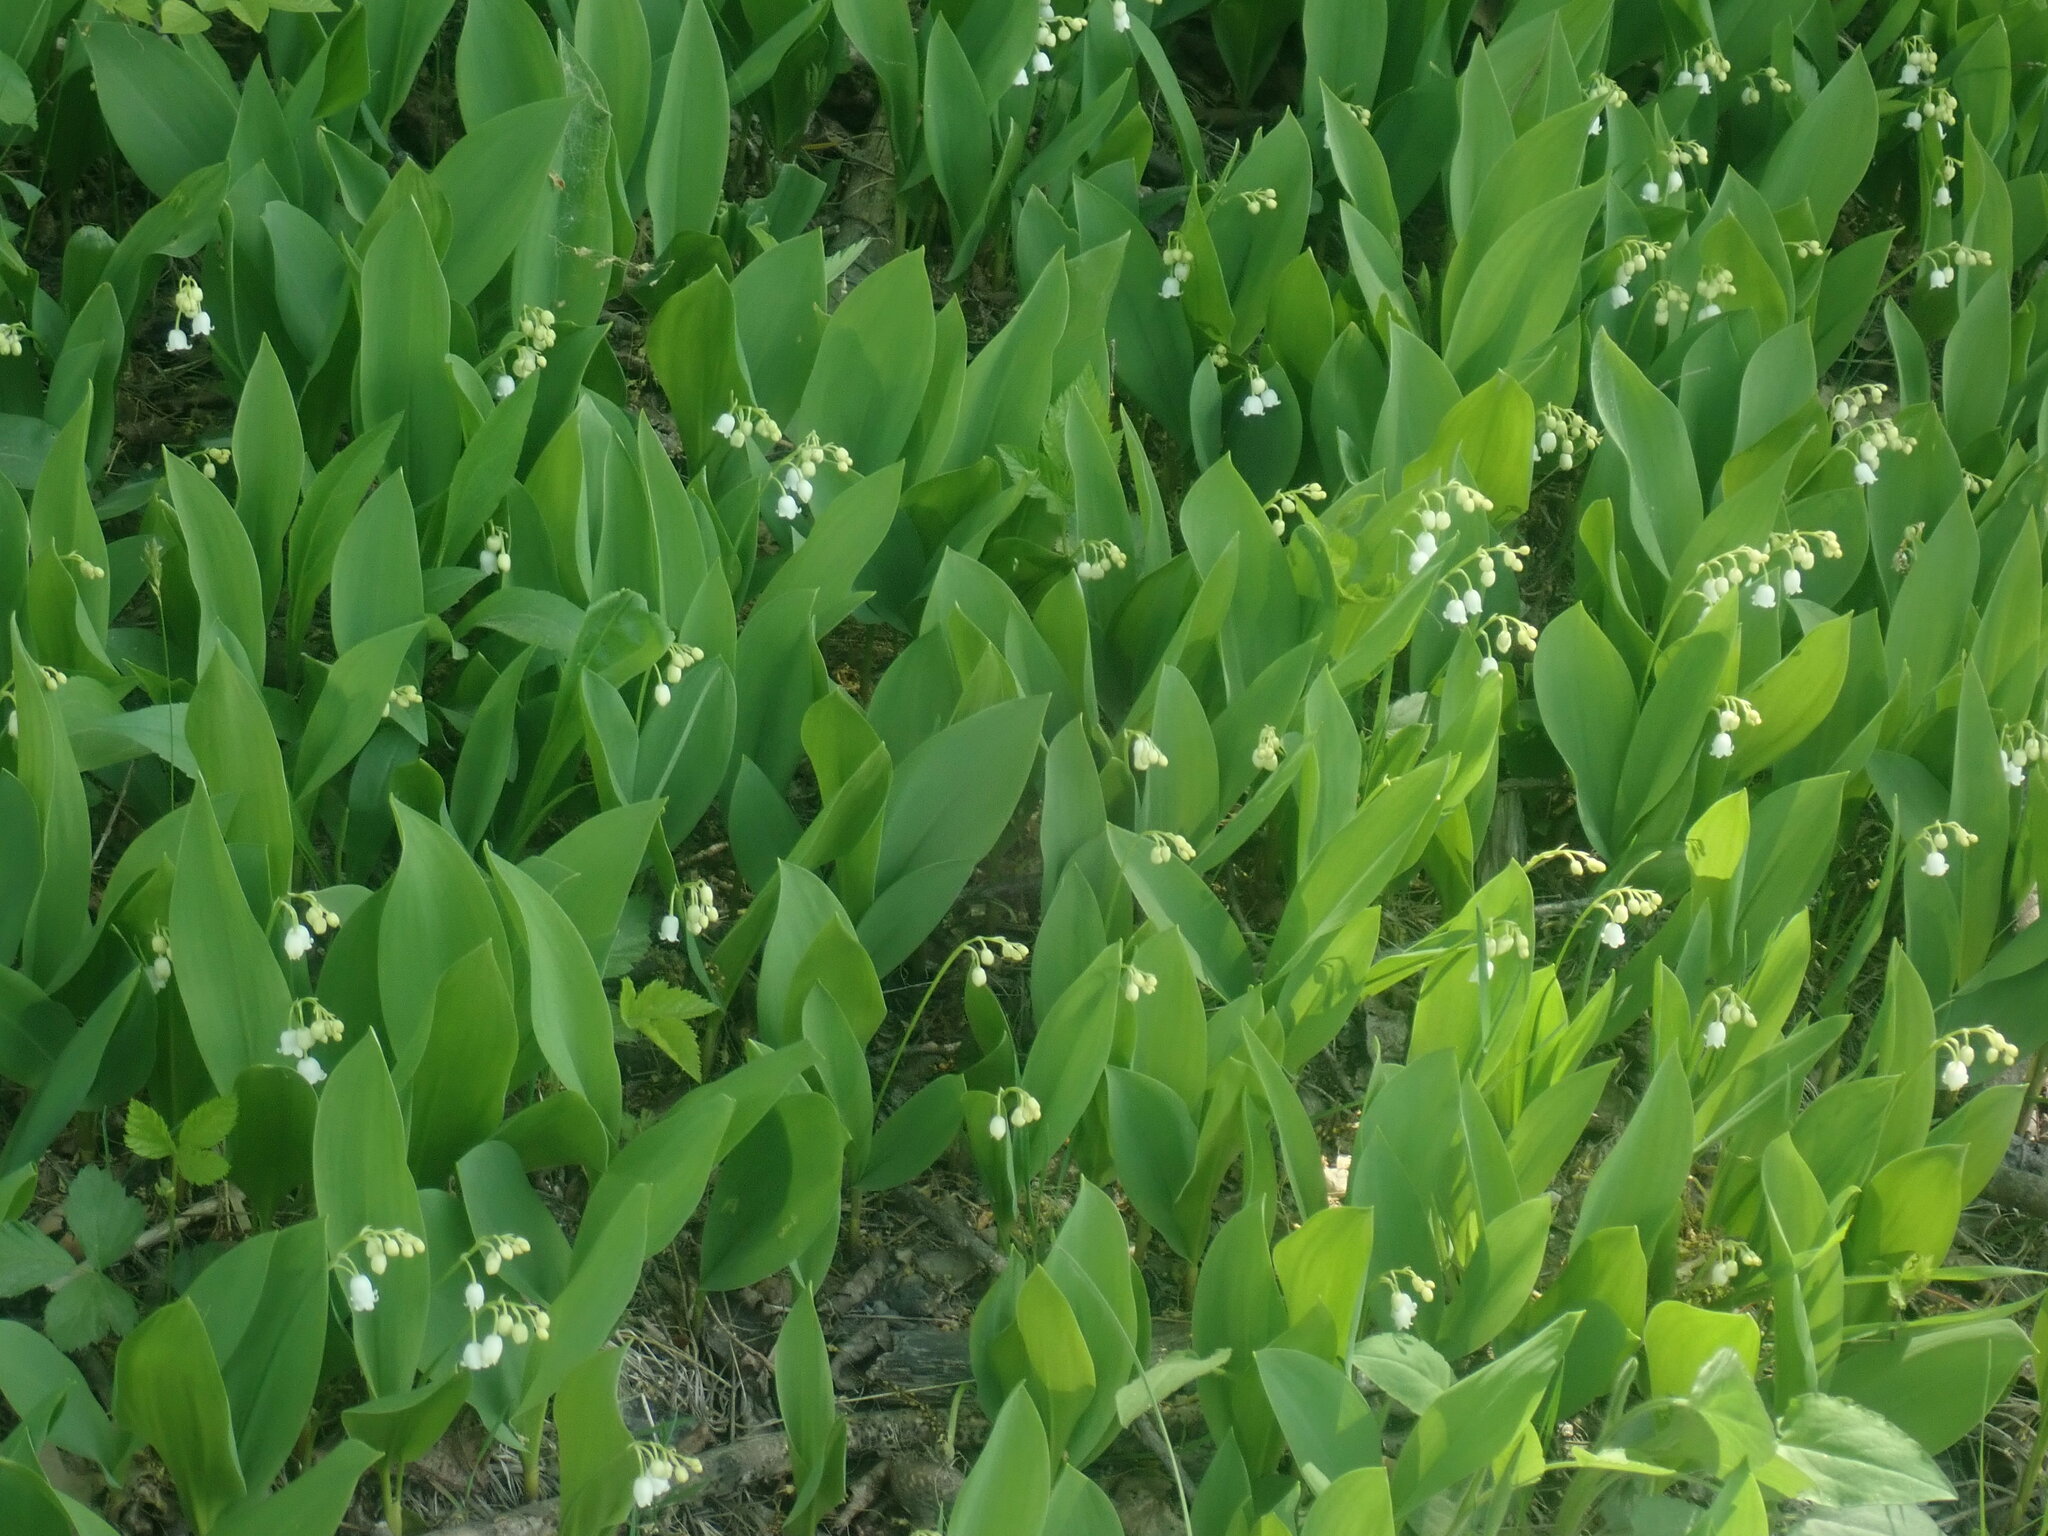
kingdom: Plantae
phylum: Tracheophyta
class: Liliopsida
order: Asparagales
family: Asparagaceae
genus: Convallaria
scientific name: Convallaria majalis
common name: Lily-of-the-valley
